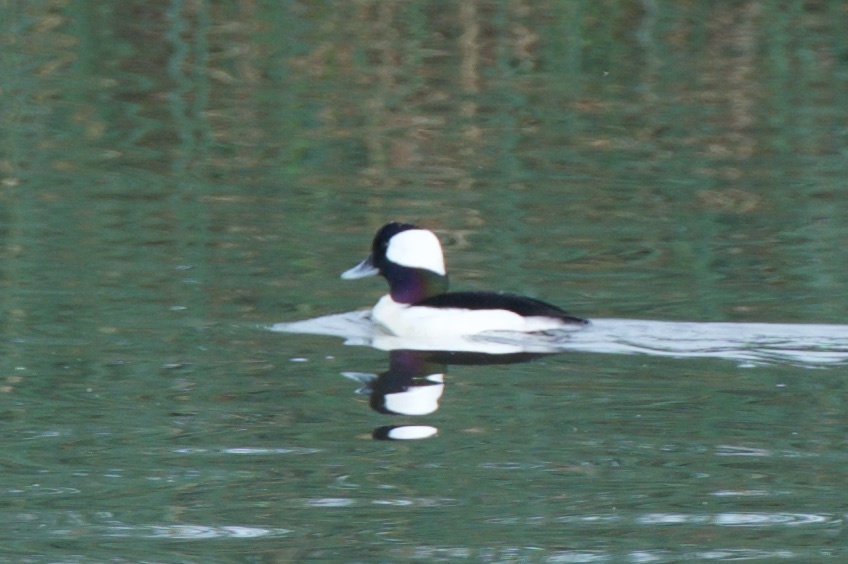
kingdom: Animalia
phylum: Chordata
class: Aves
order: Anseriformes
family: Anatidae
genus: Bucephala
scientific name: Bucephala albeola
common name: Bufflehead
